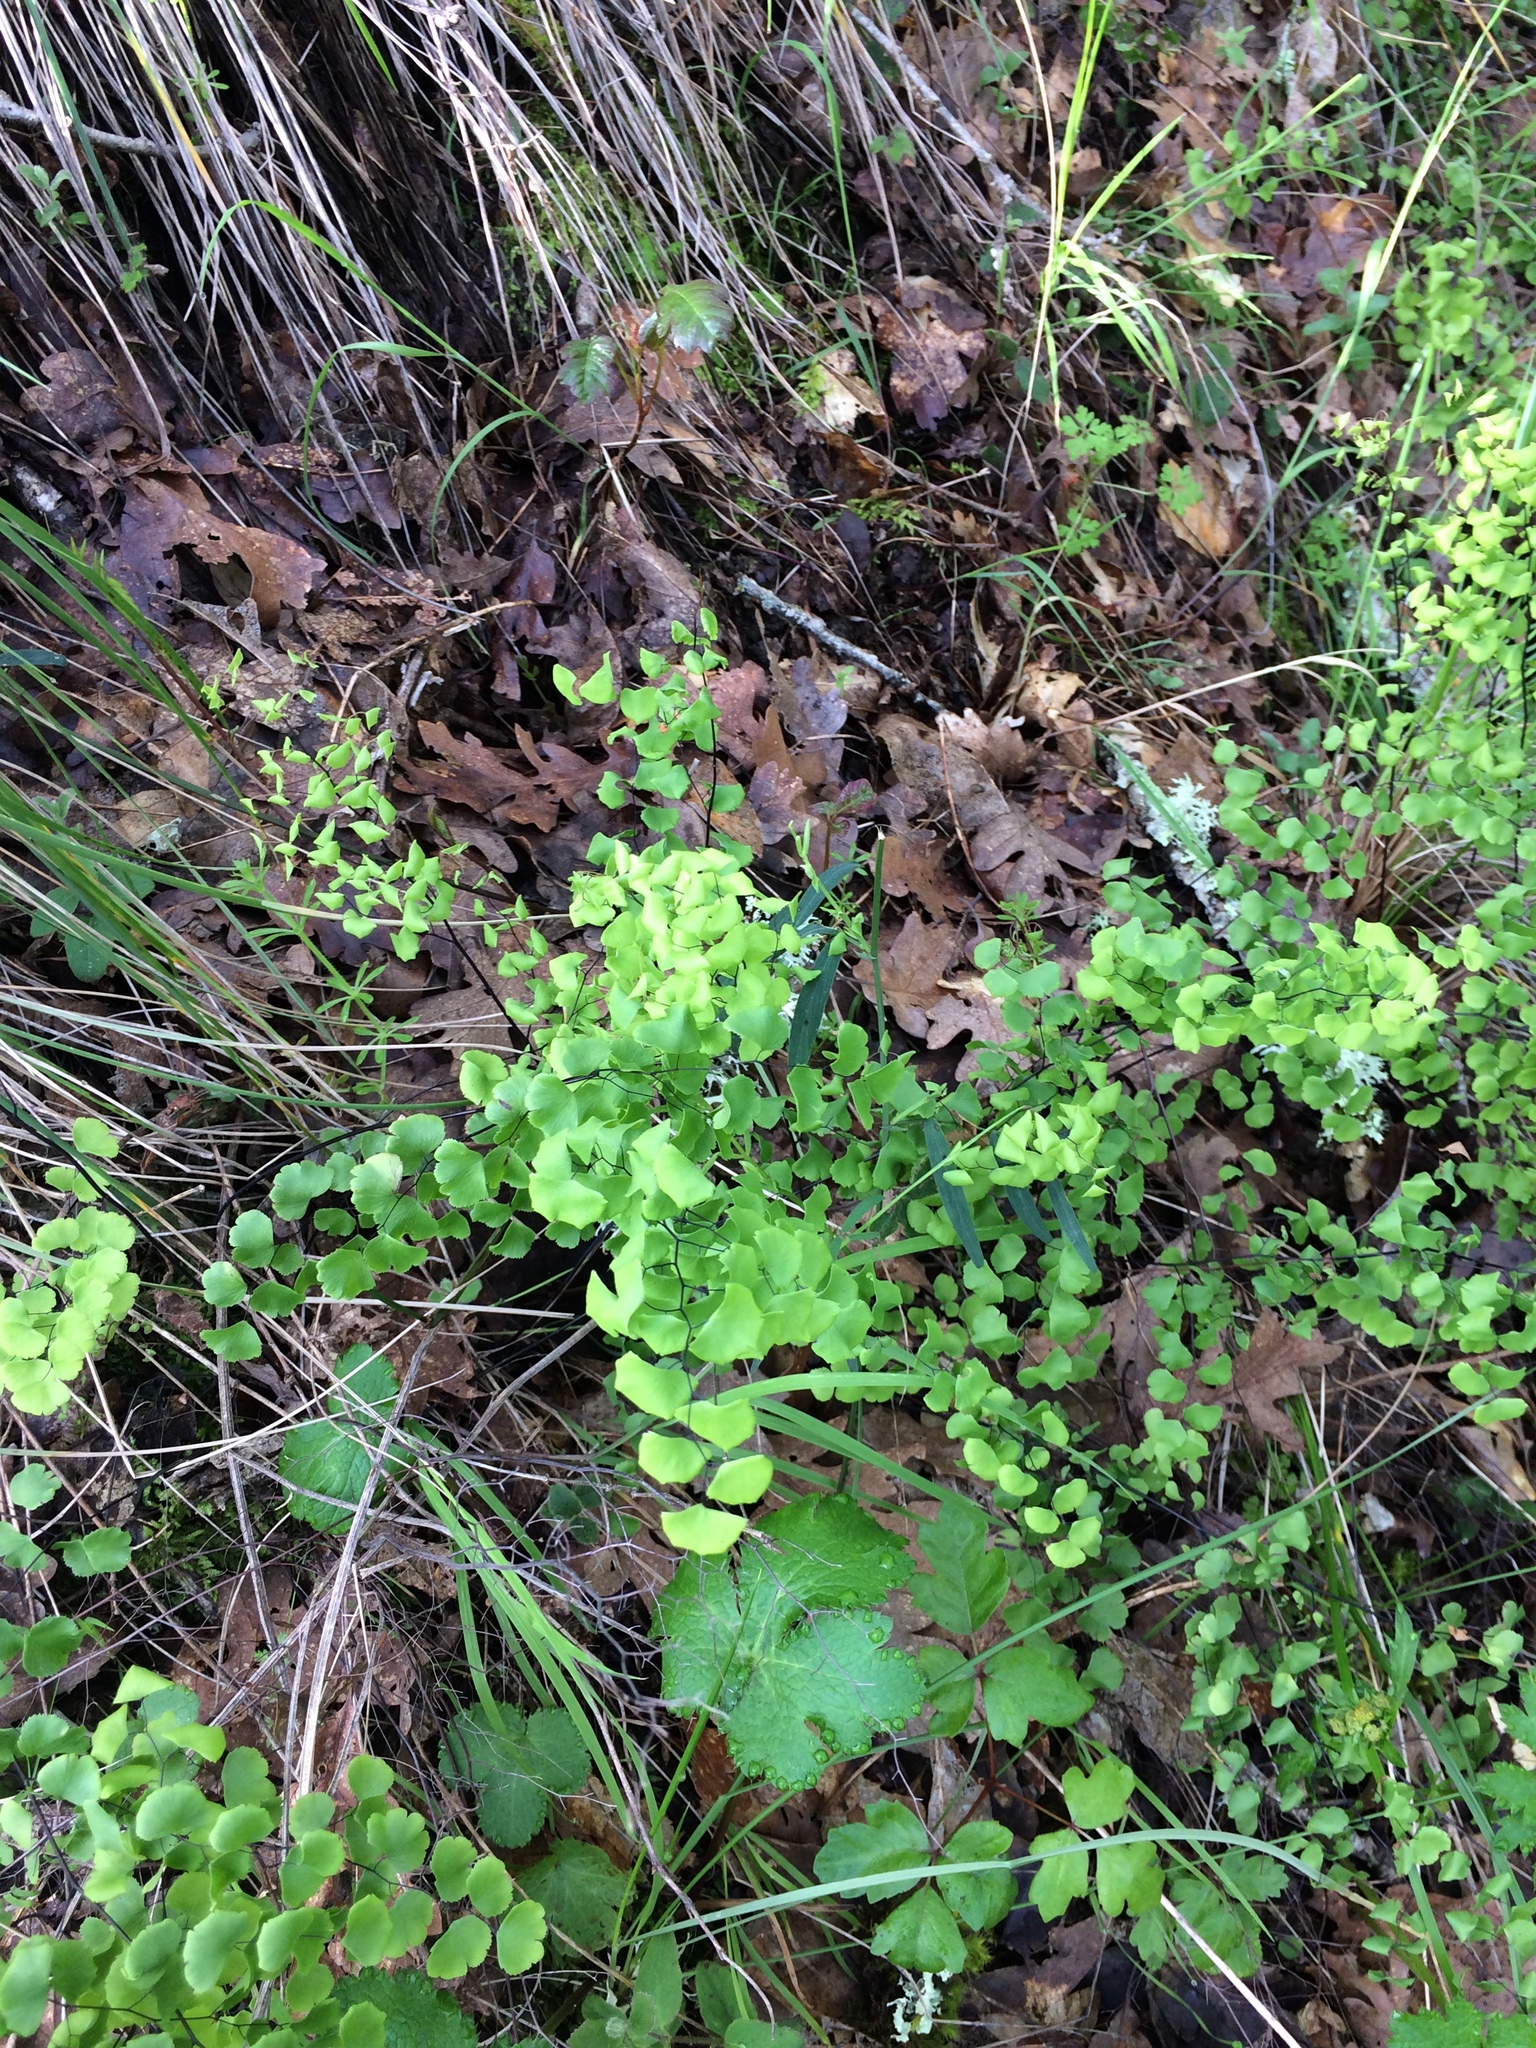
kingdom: Plantae
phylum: Tracheophyta
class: Polypodiopsida
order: Polypodiales
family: Pteridaceae
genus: Adiantum
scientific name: Adiantum jordanii
